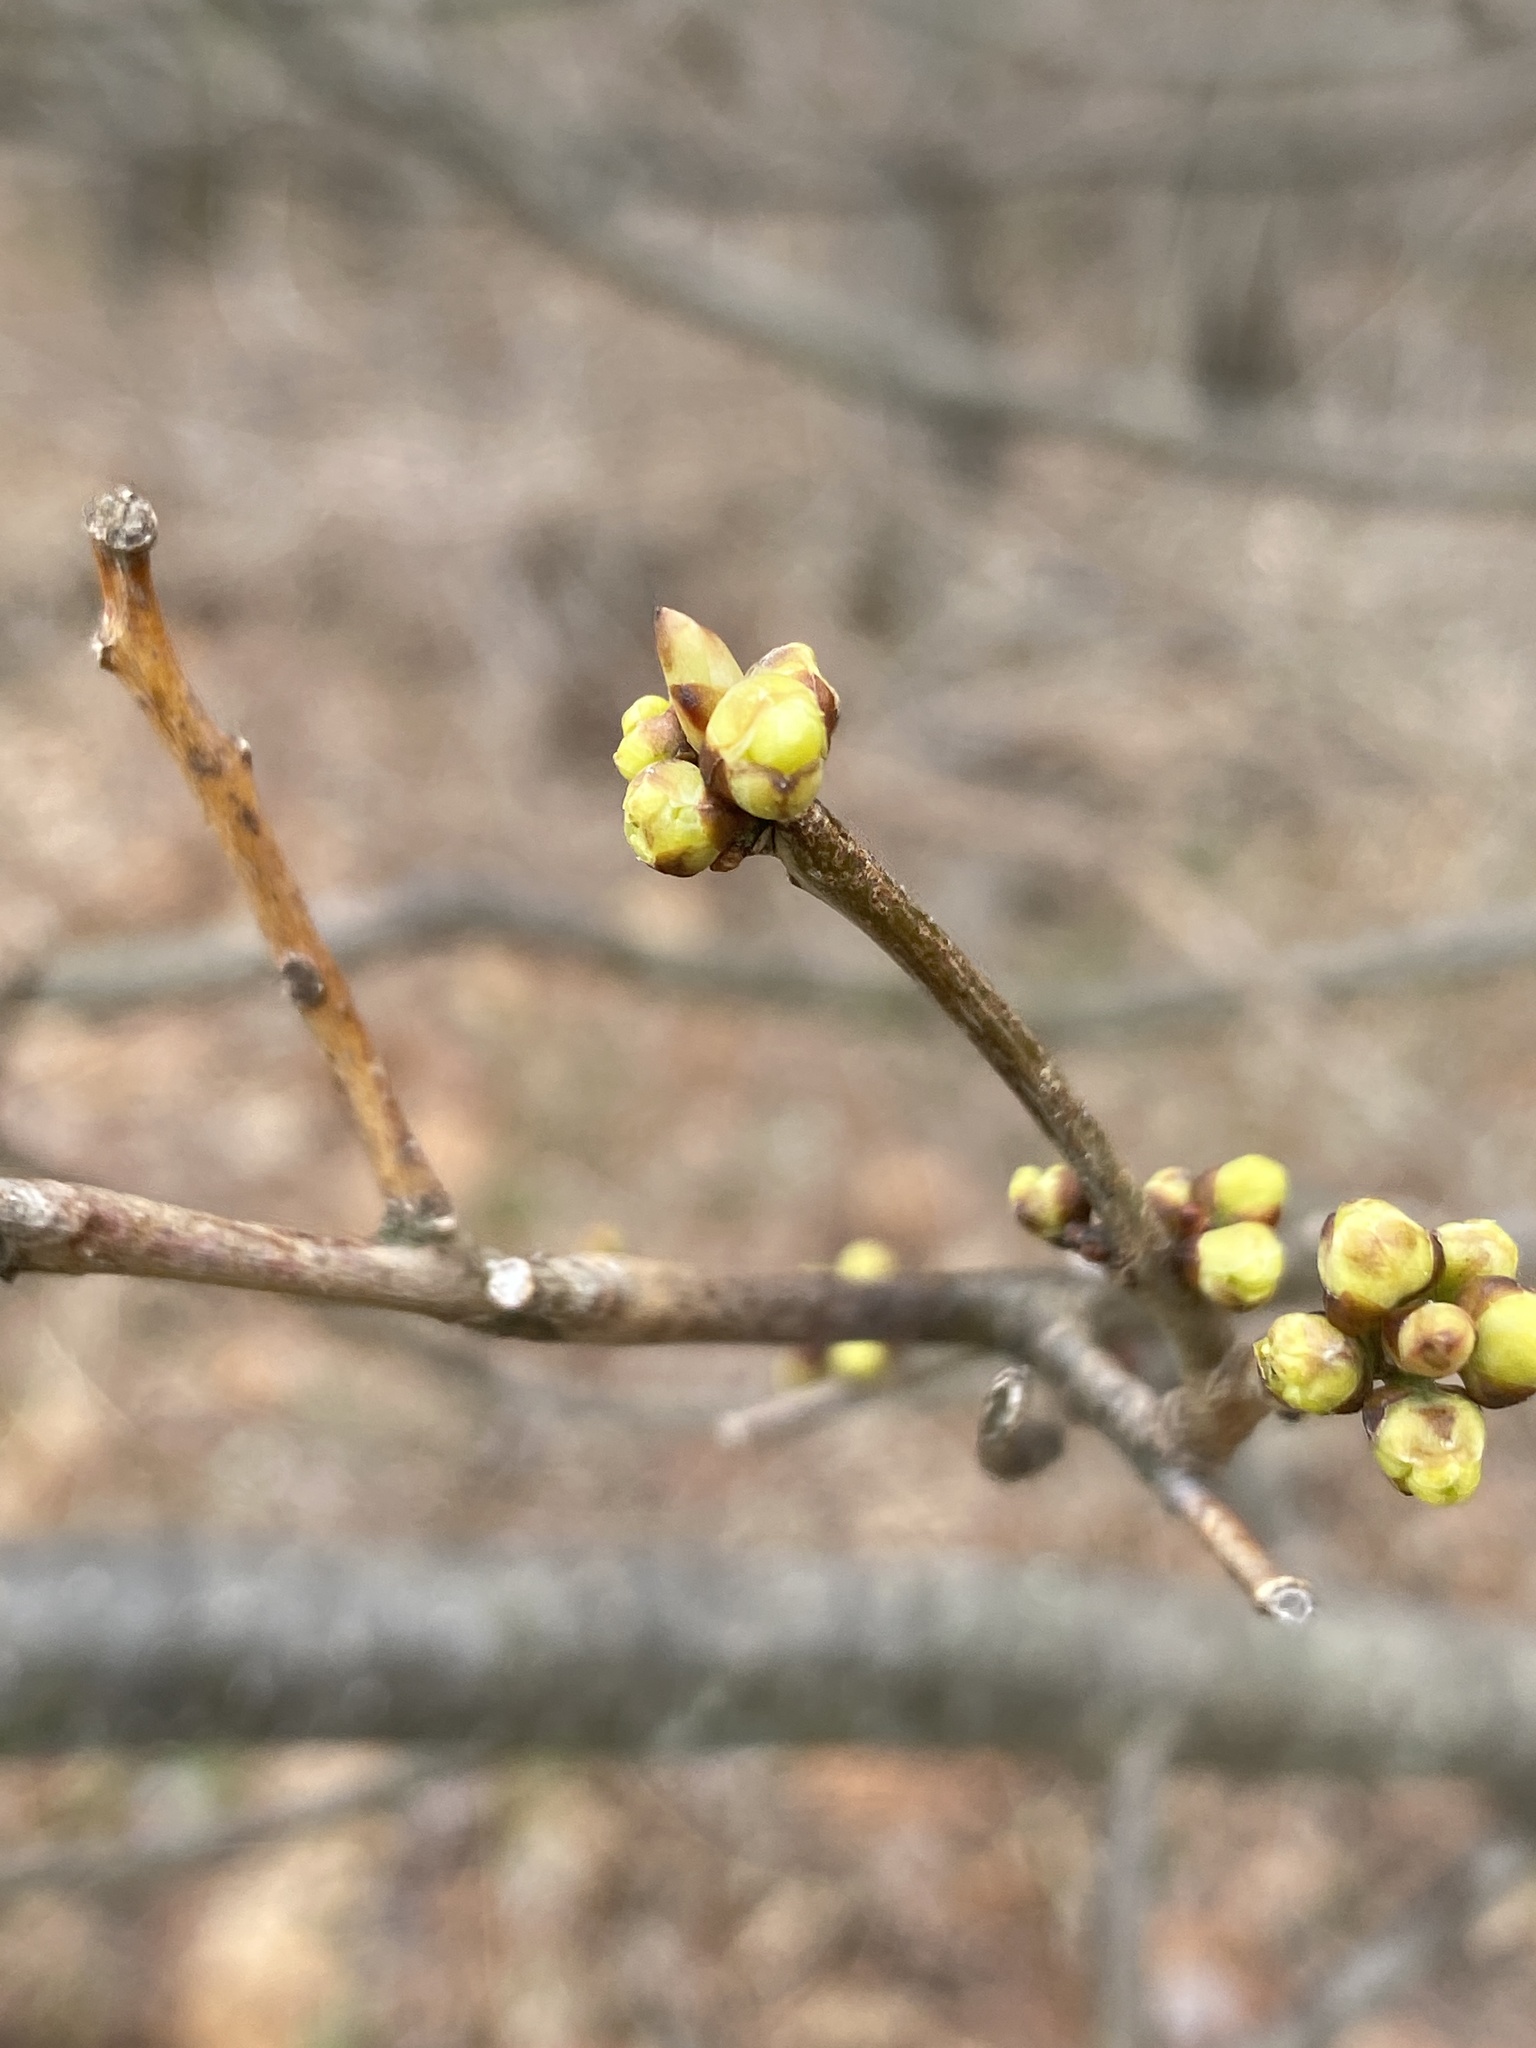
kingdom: Plantae
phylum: Tracheophyta
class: Magnoliopsida
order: Laurales
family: Lauraceae
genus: Lindera
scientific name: Lindera benzoin
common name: Spicebush
